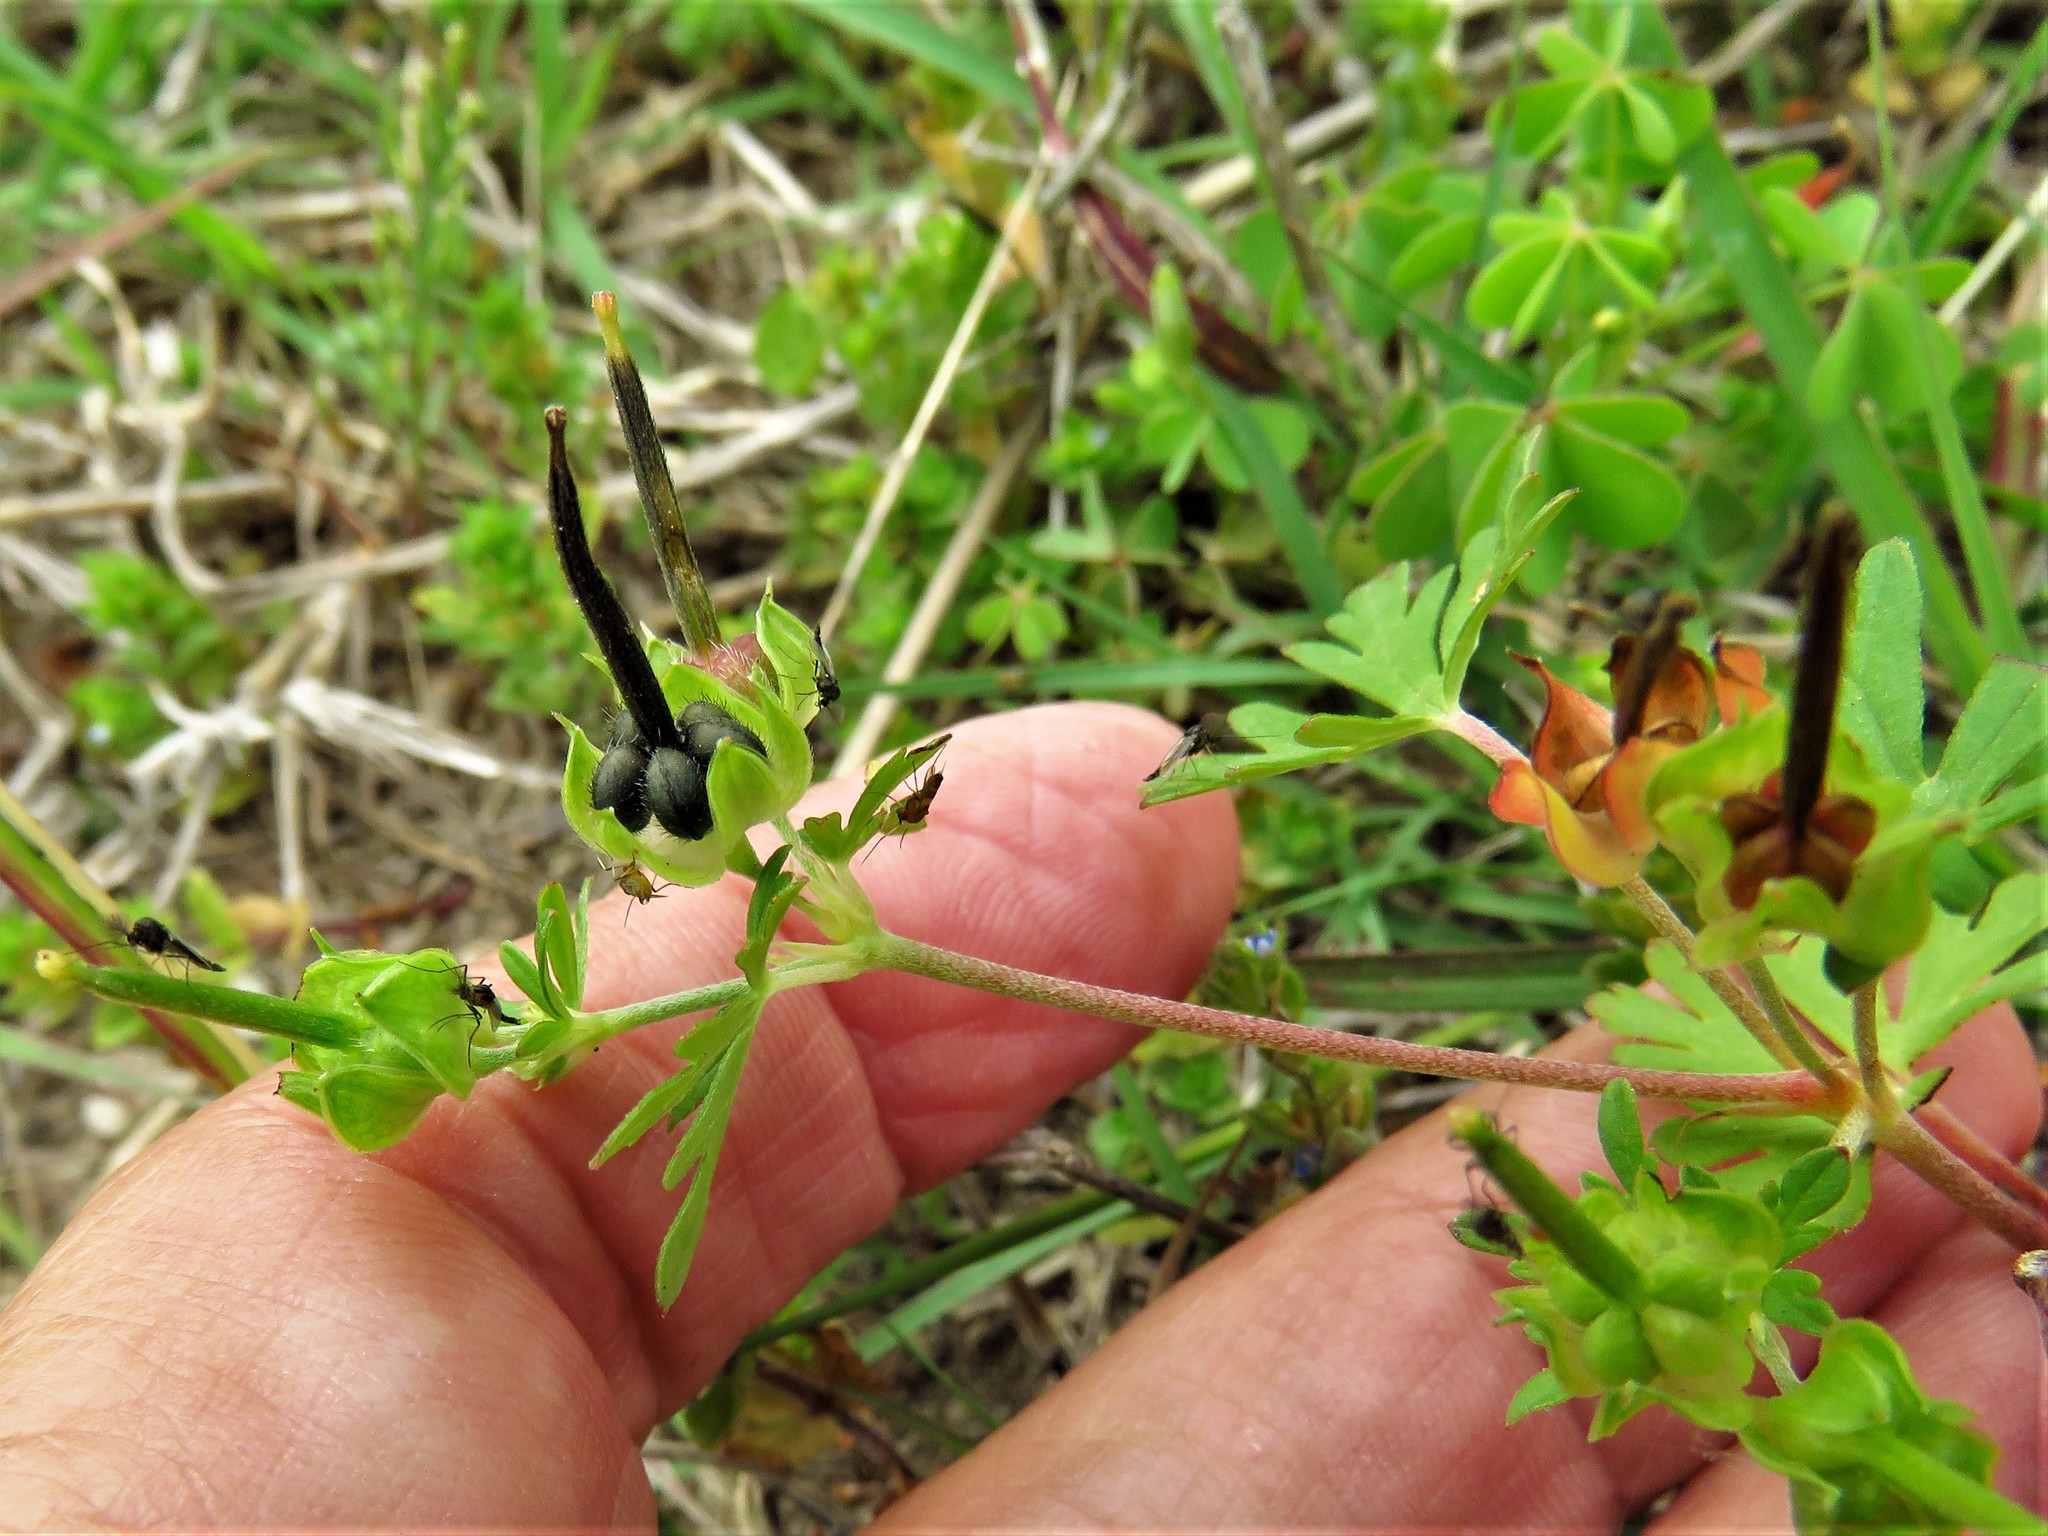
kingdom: Plantae
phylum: Tracheophyta
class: Magnoliopsida
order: Geraniales
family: Geraniaceae
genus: Geranium
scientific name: Geranium carolinianum
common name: Carolina crane's-bill
